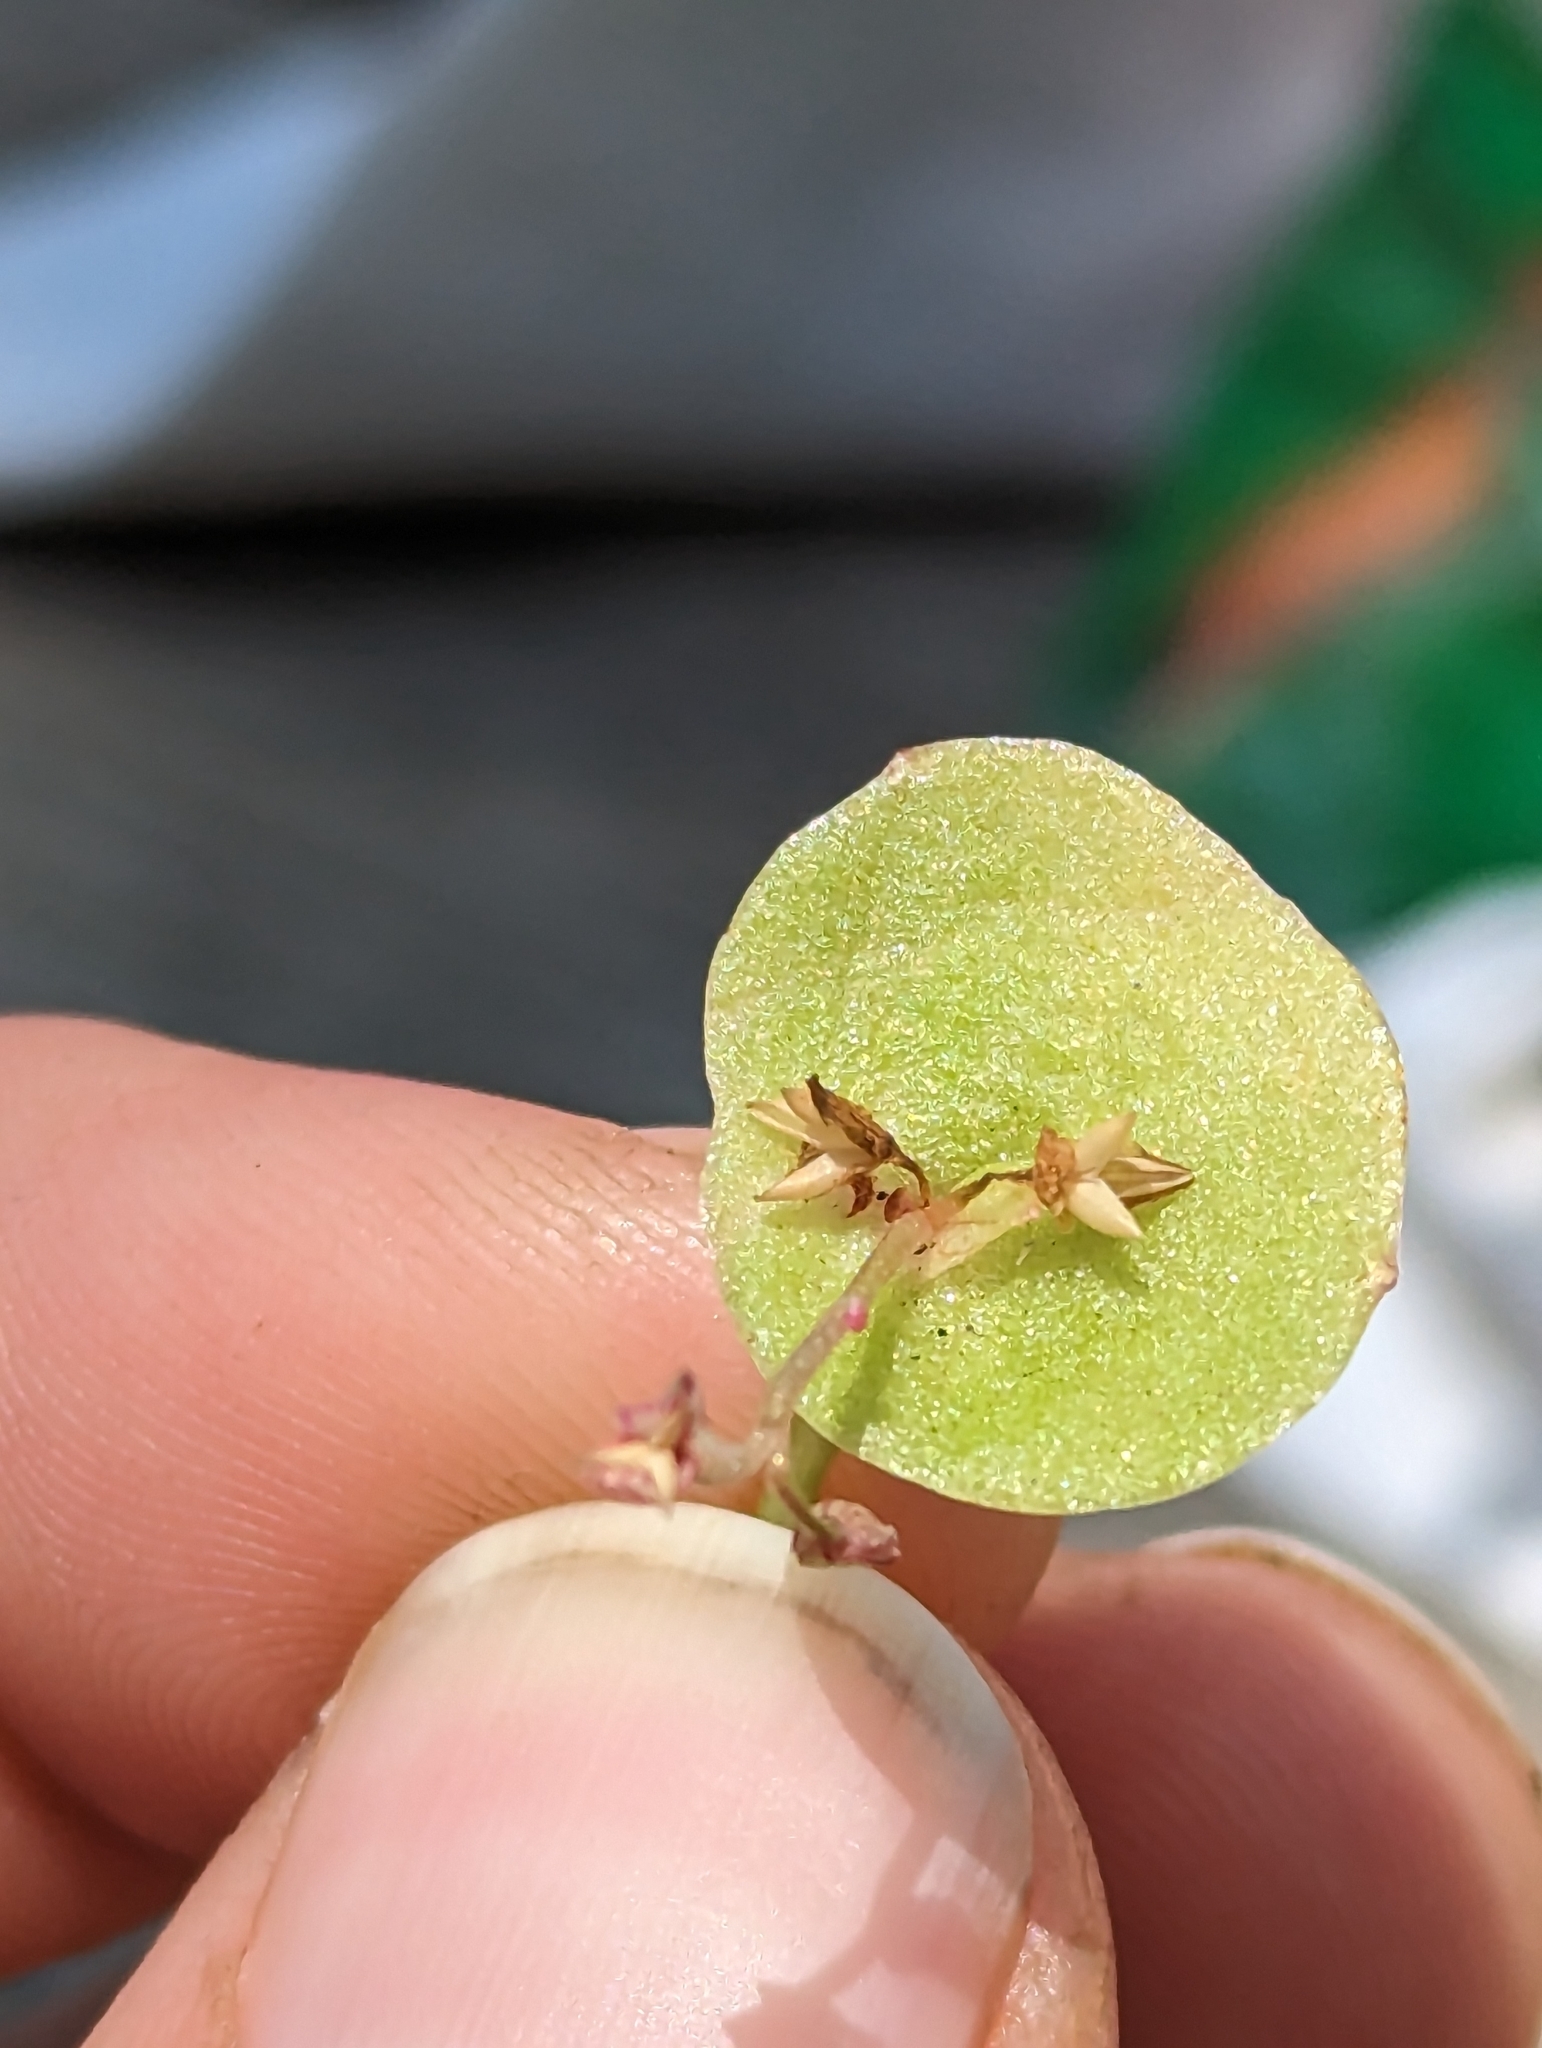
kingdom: Plantae
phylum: Tracheophyta
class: Magnoliopsida
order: Caryophyllales
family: Montiaceae
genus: Claytonia
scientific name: Claytonia perfoliata
